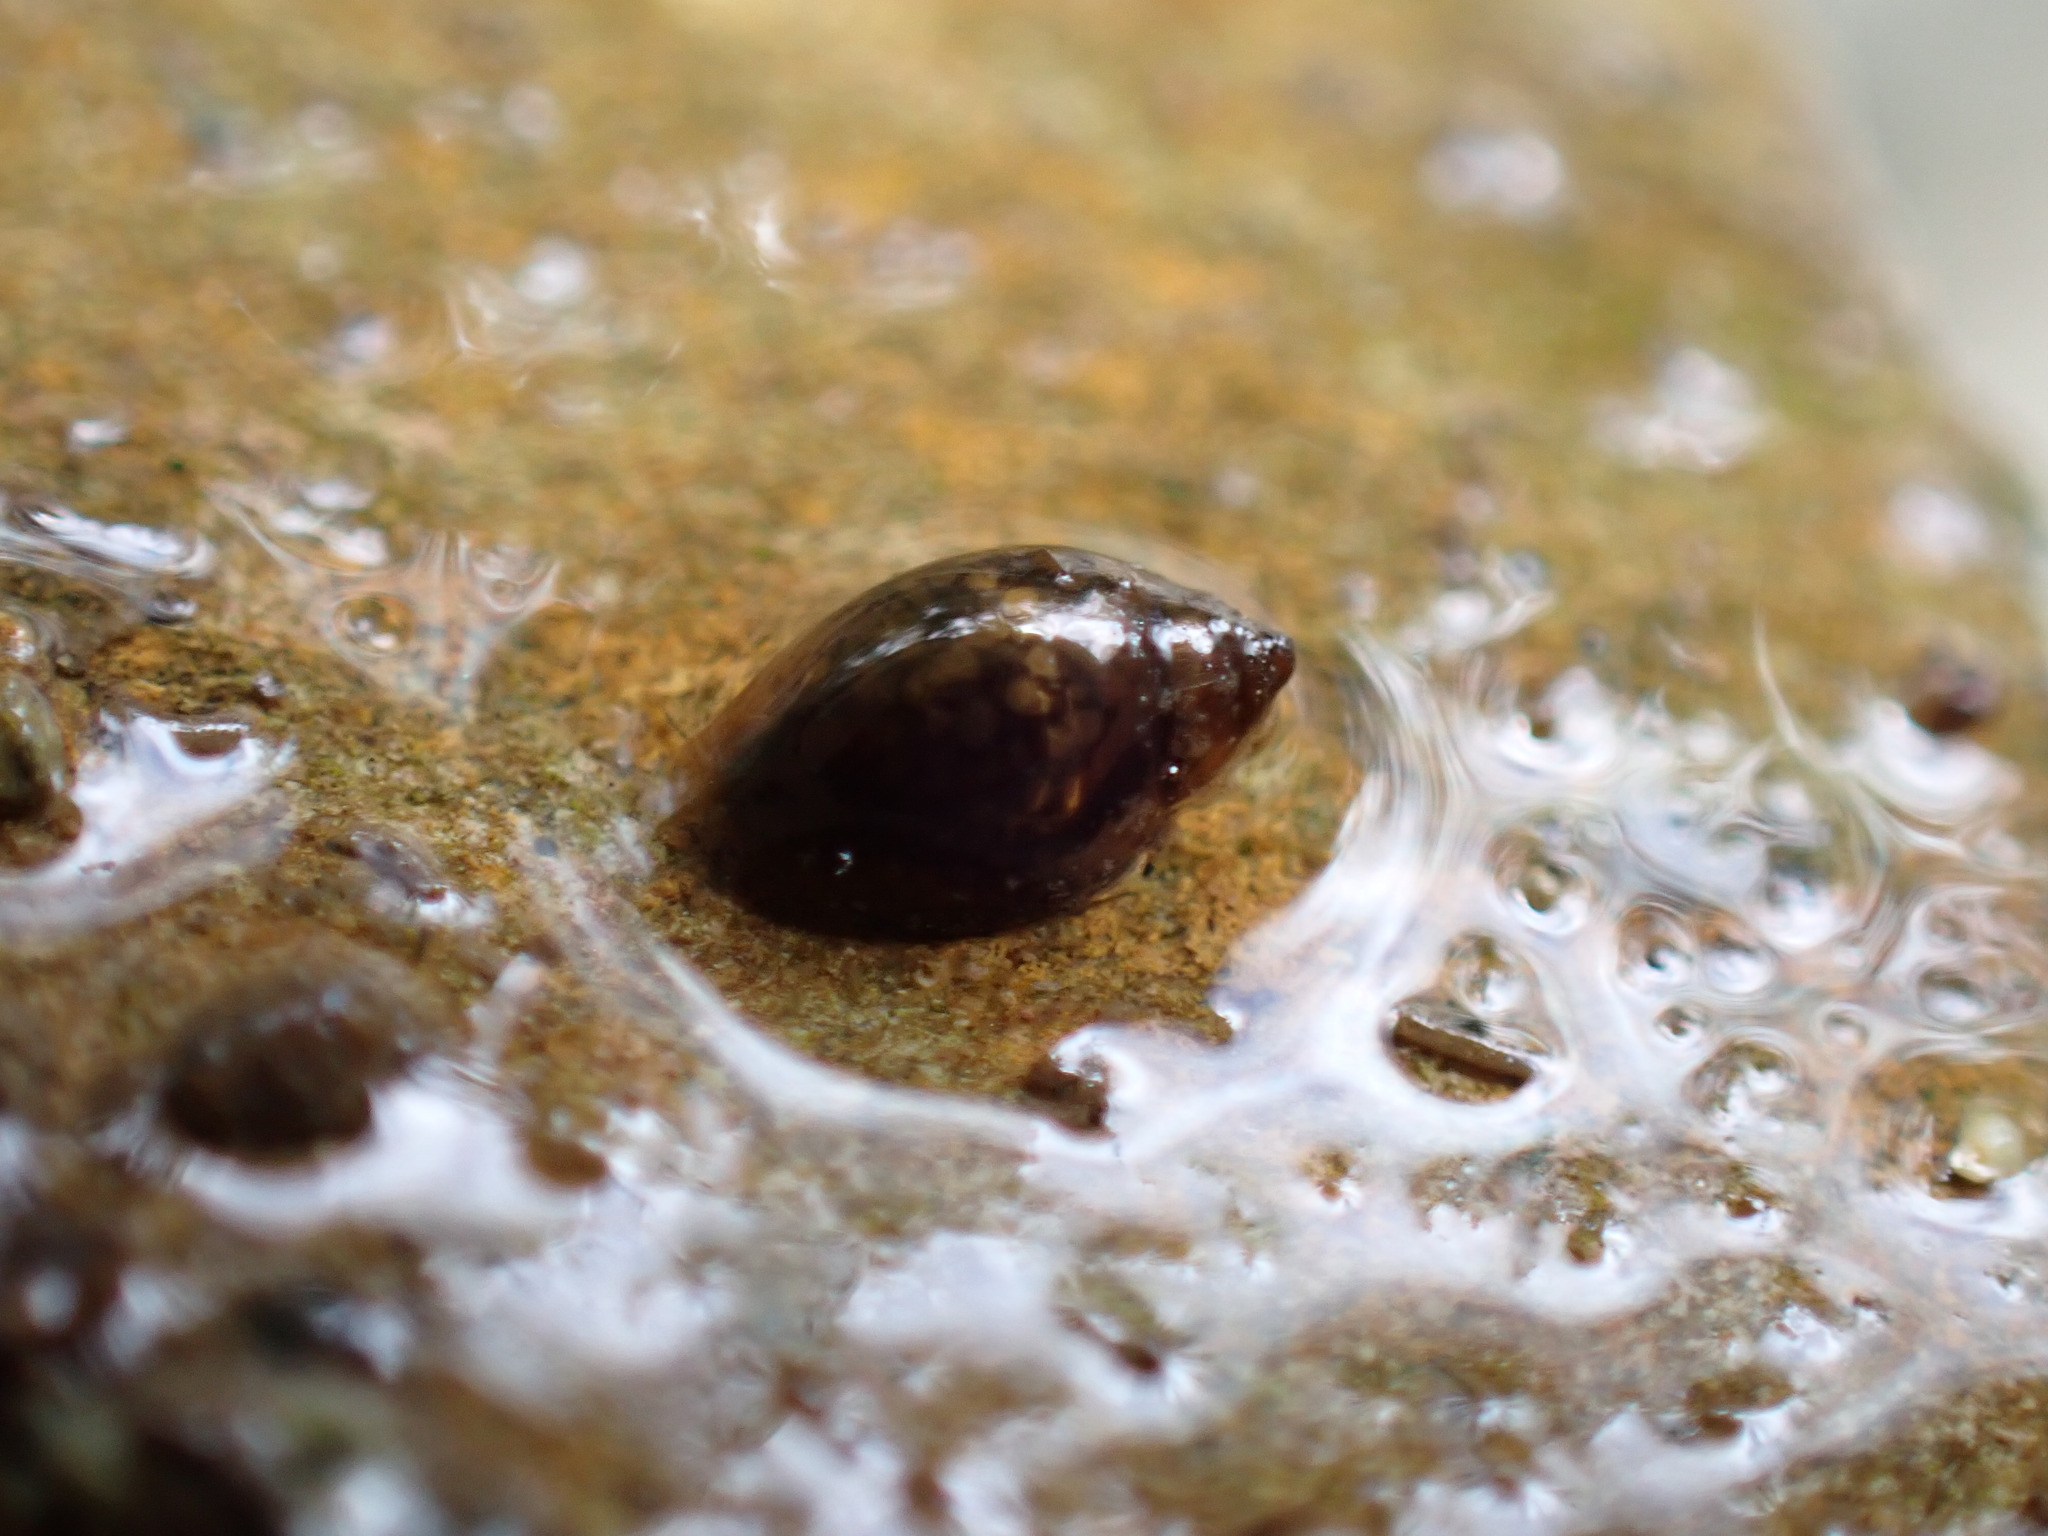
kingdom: Animalia
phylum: Mollusca
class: Gastropoda
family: Physidae
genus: Physella
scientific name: Physella acuta
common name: European physa
